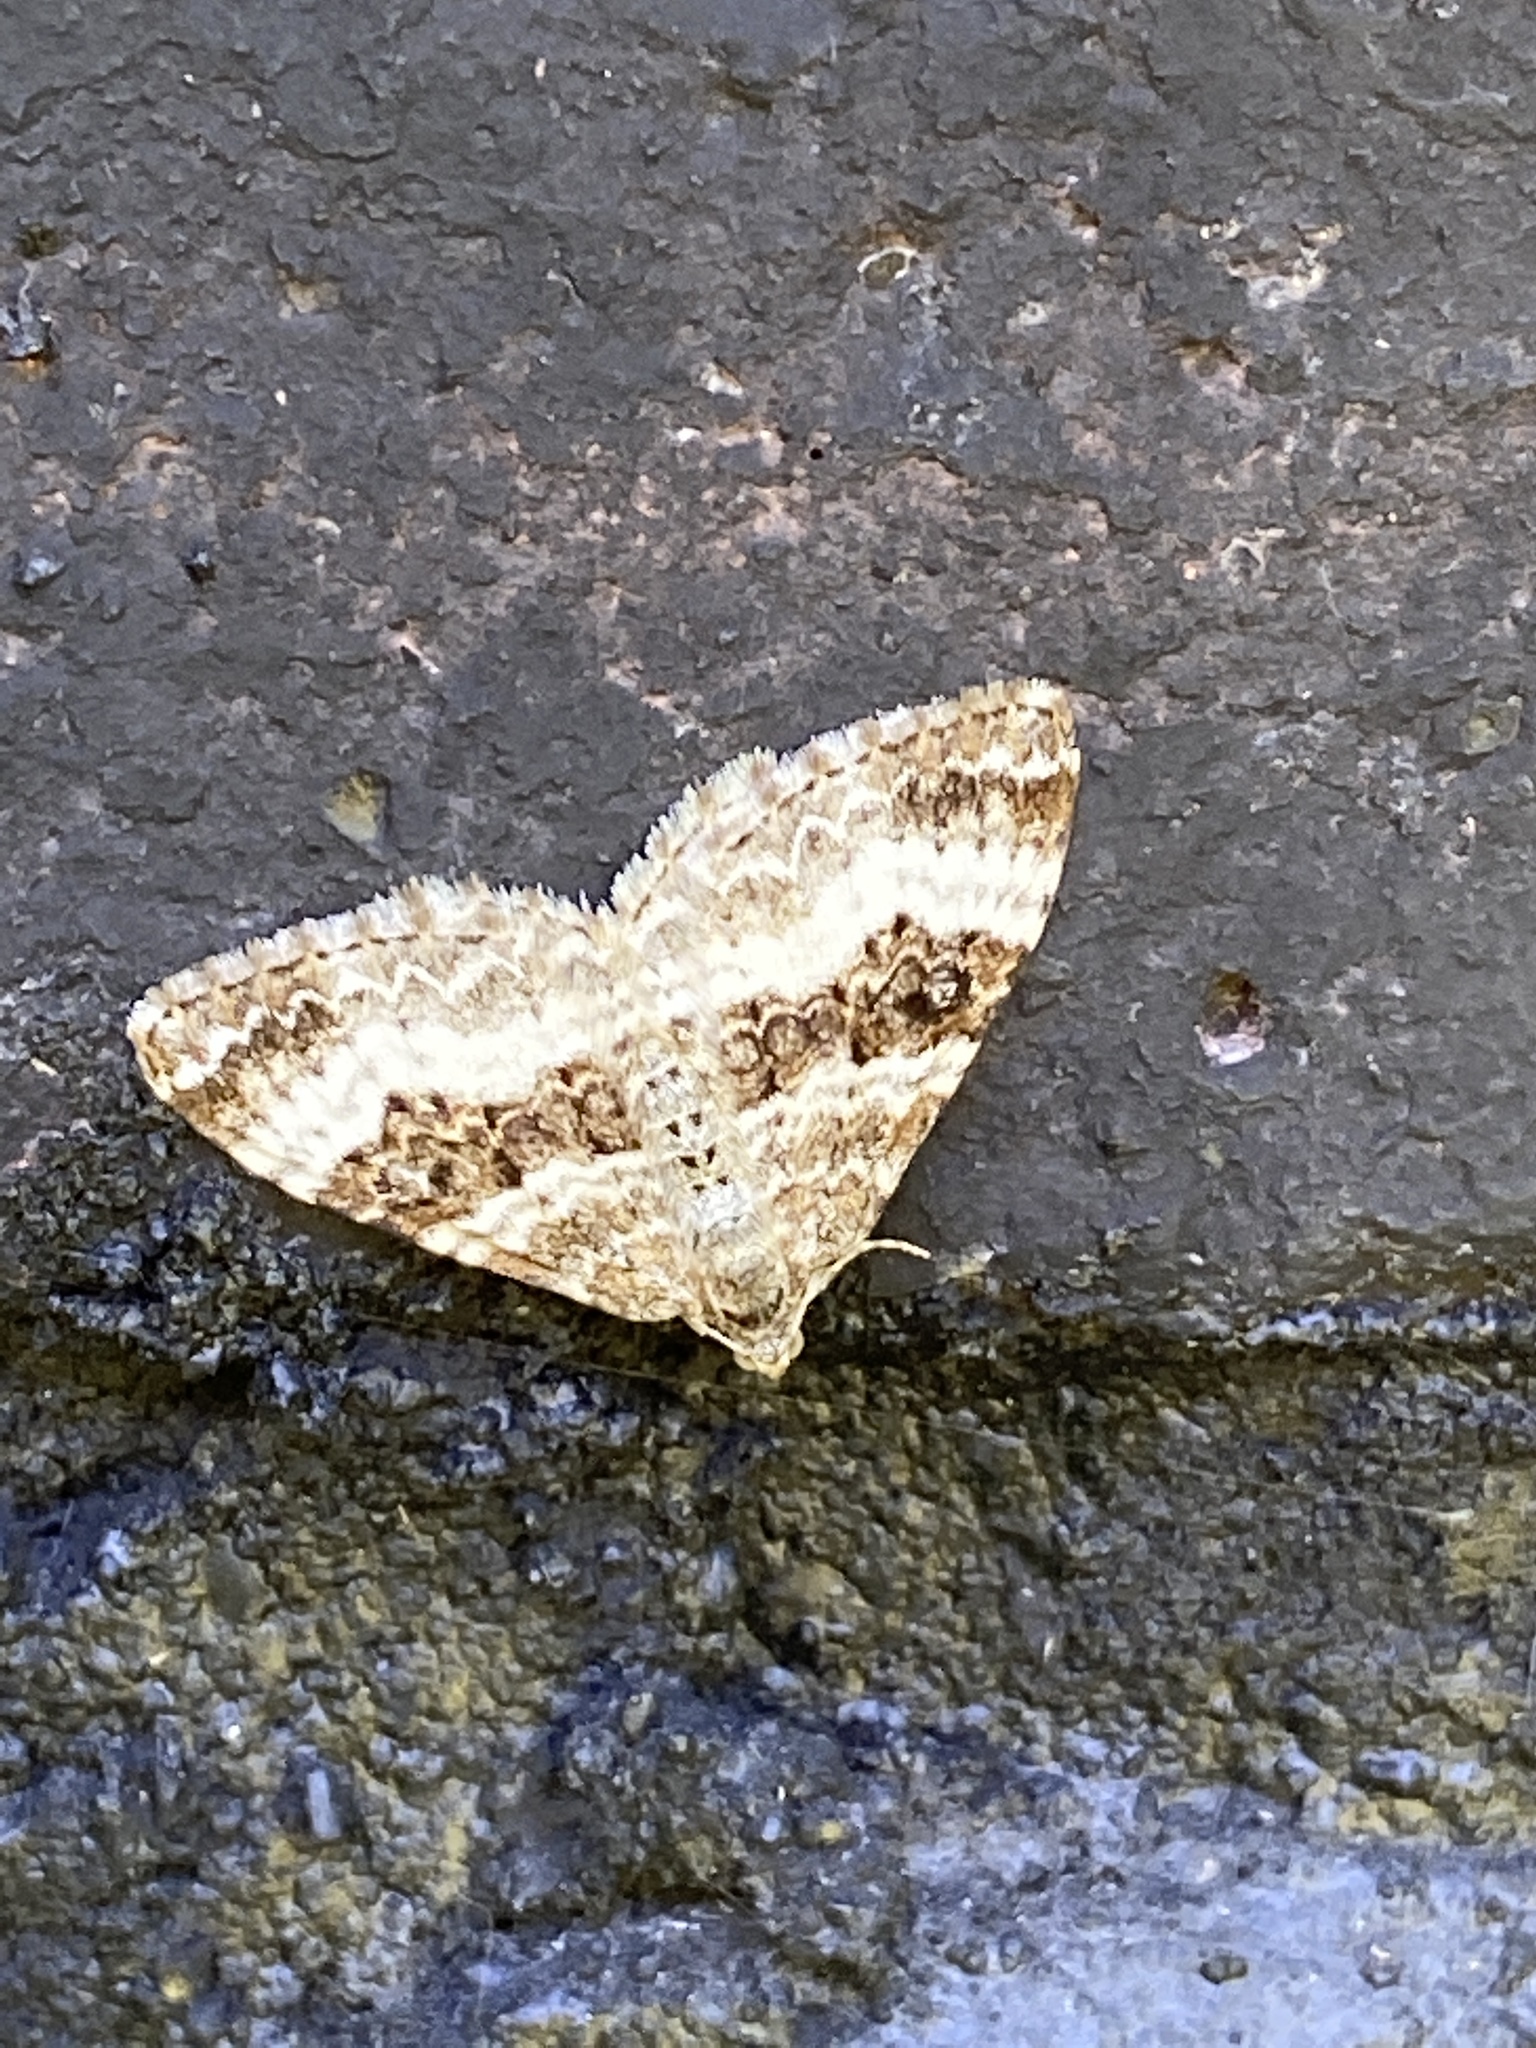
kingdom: Animalia
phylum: Arthropoda
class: Insecta
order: Lepidoptera
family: Geometridae
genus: Epirrhoe
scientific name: Epirrhoe alternata
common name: Common carpet
